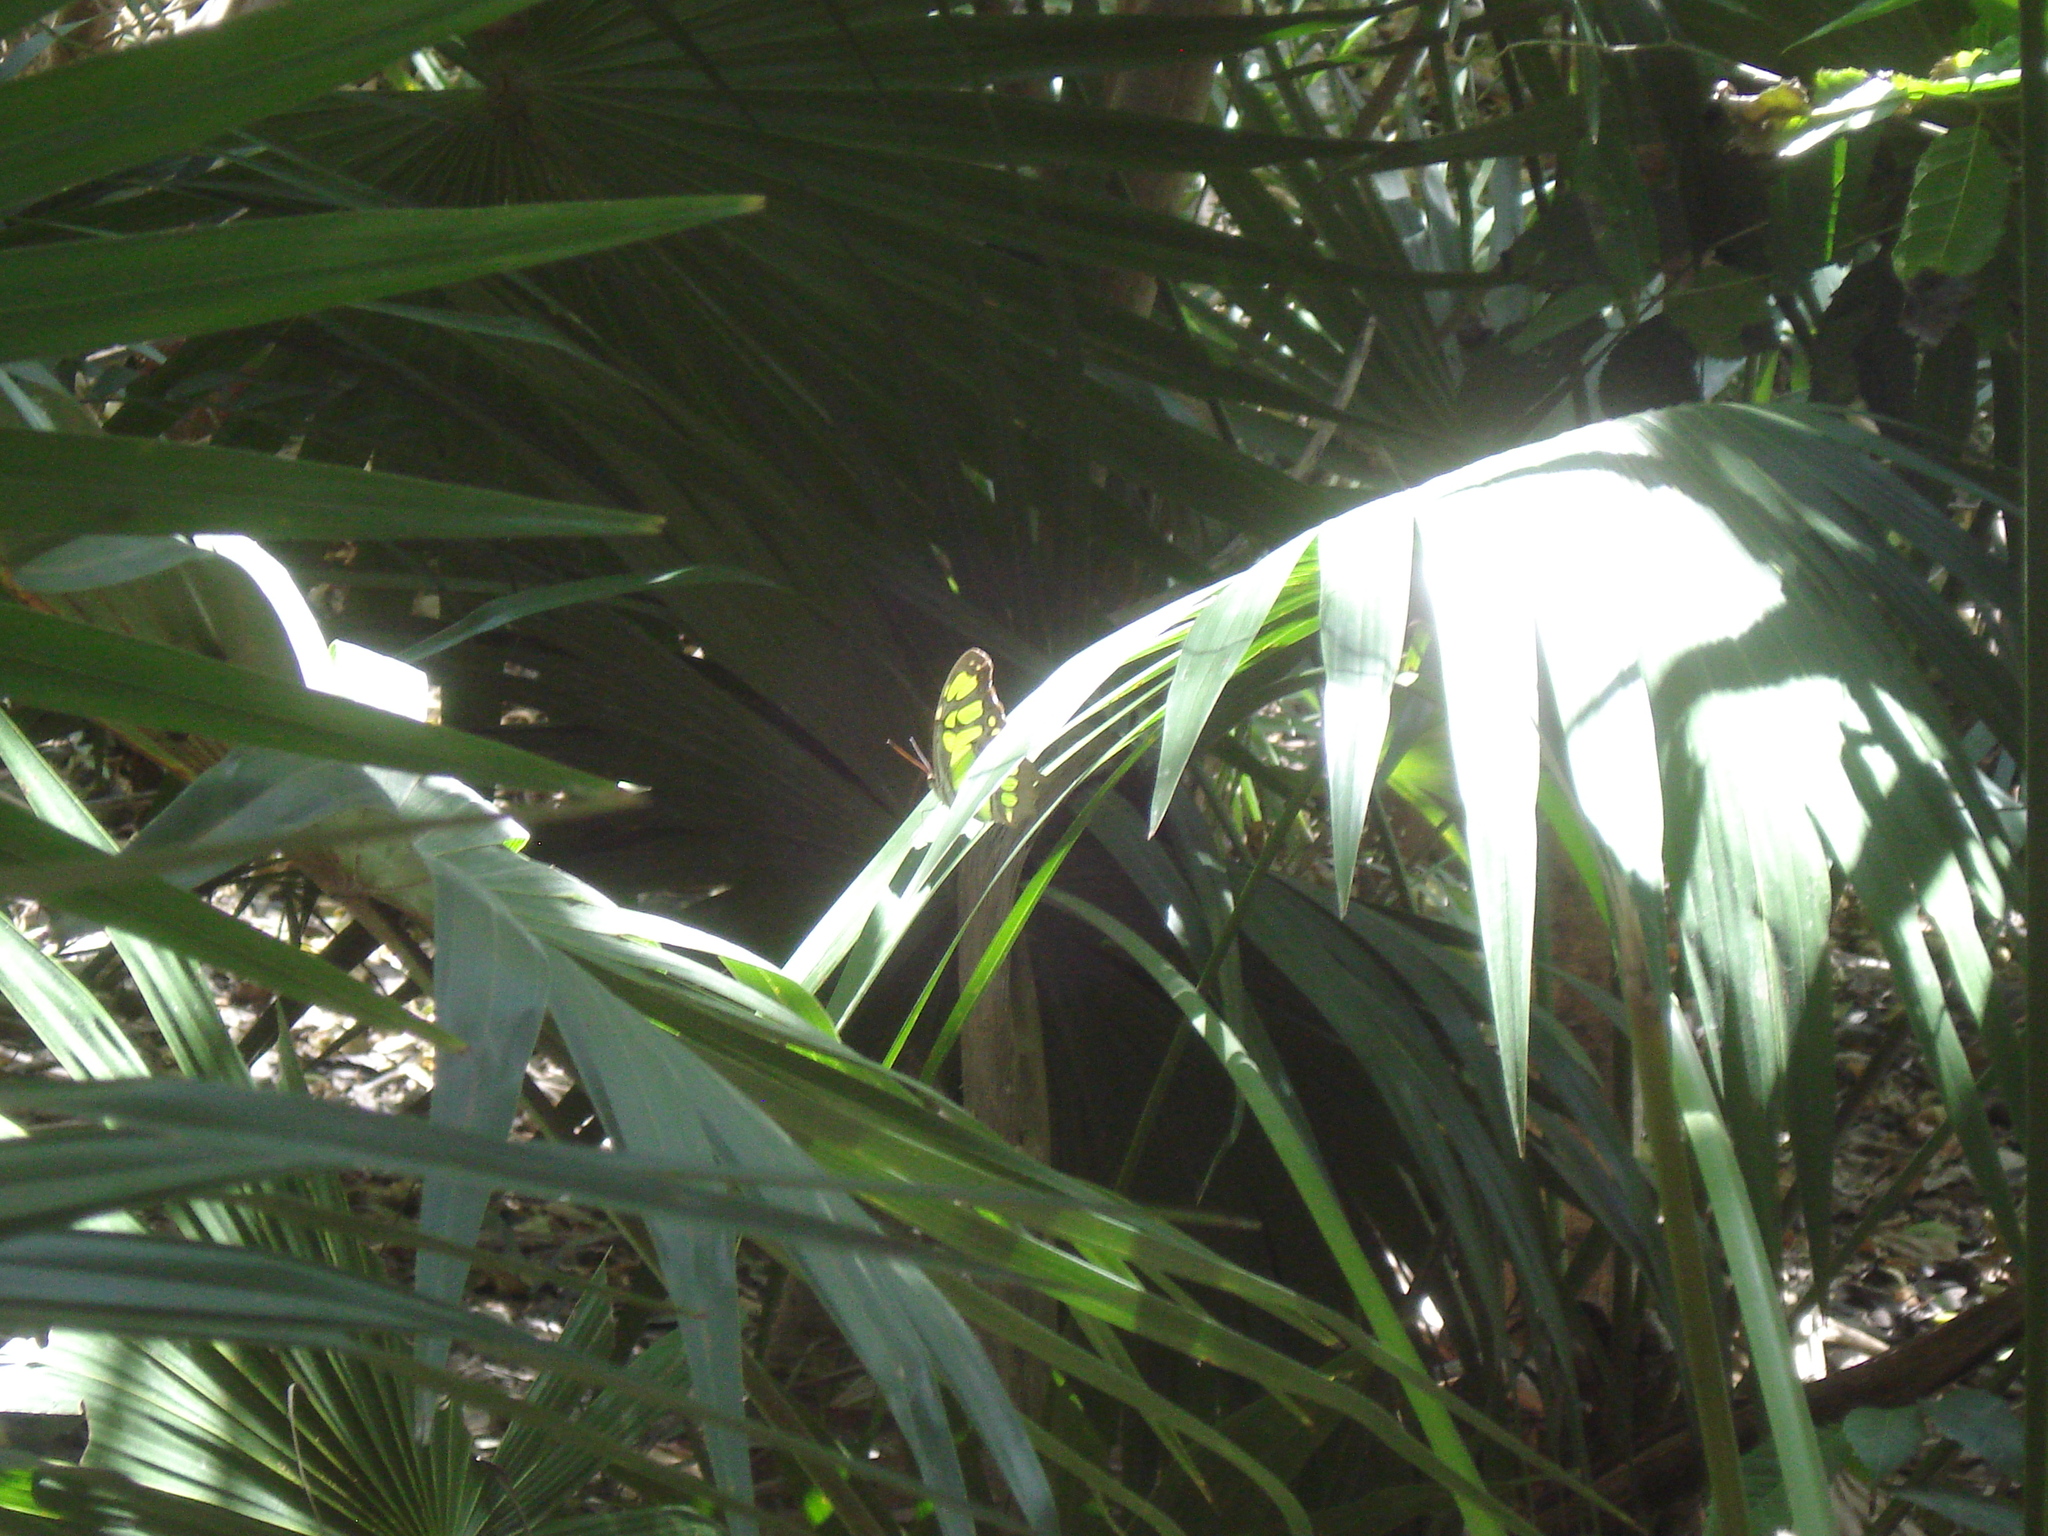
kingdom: Animalia
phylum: Arthropoda
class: Insecta
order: Lepidoptera
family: Nymphalidae
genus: Siproeta
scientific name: Siproeta stelenes
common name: Malachite
